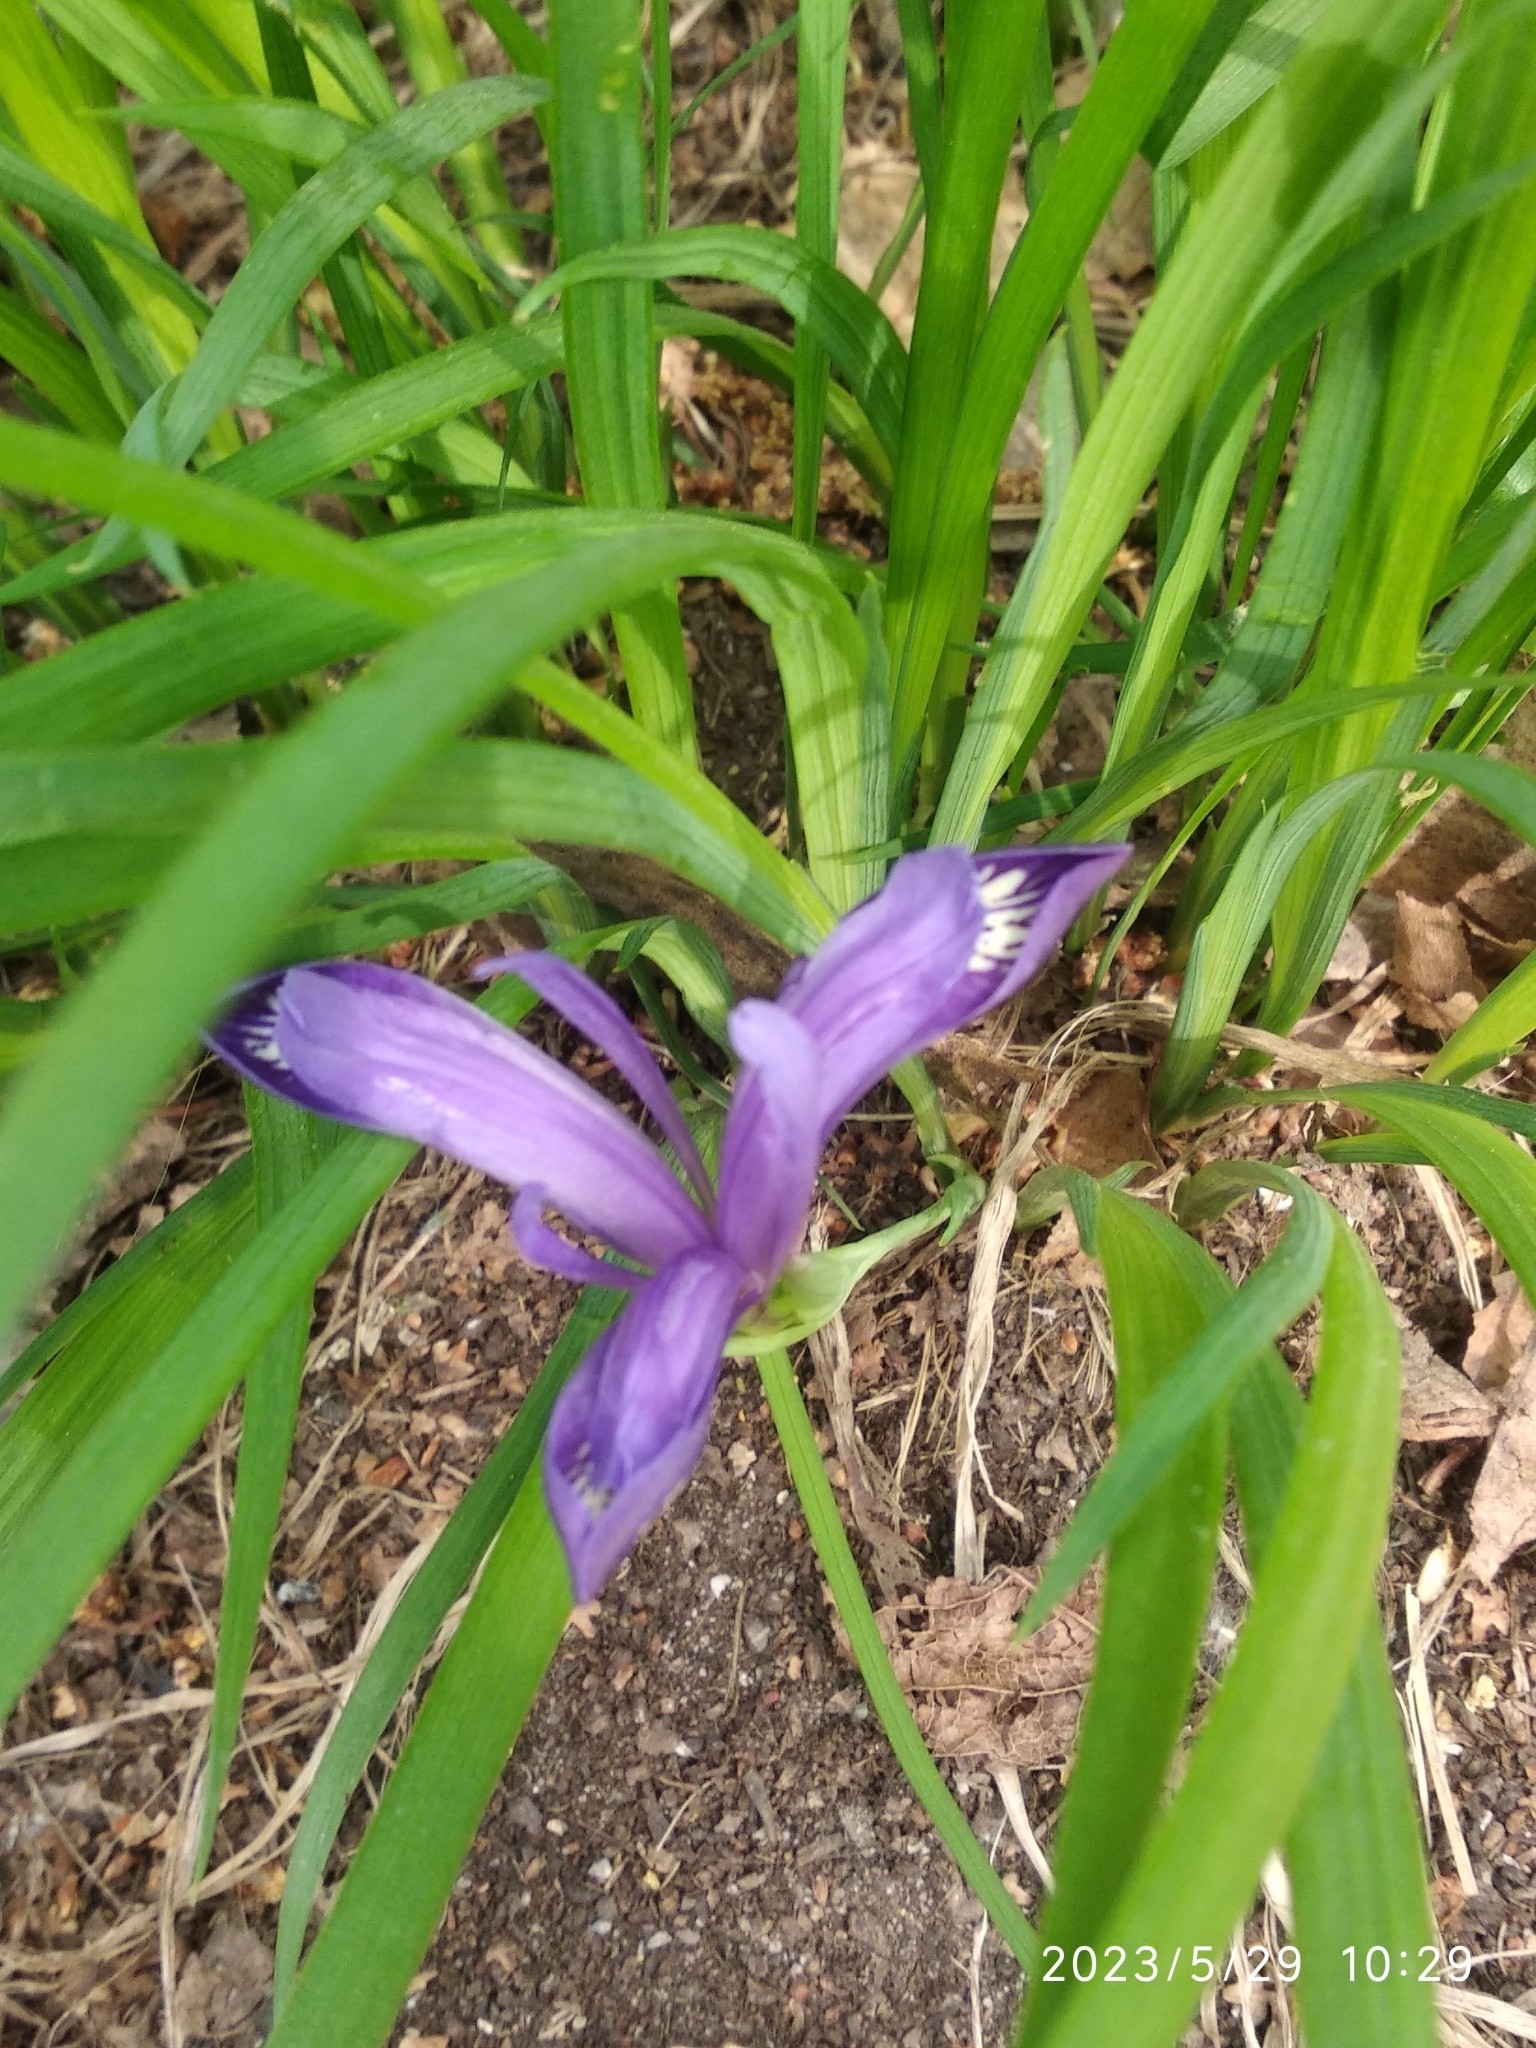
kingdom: Plantae
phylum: Tracheophyta
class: Liliopsida
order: Asparagales
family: Iridaceae
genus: Iris
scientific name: Iris ruthenica
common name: Purple-bract iris
